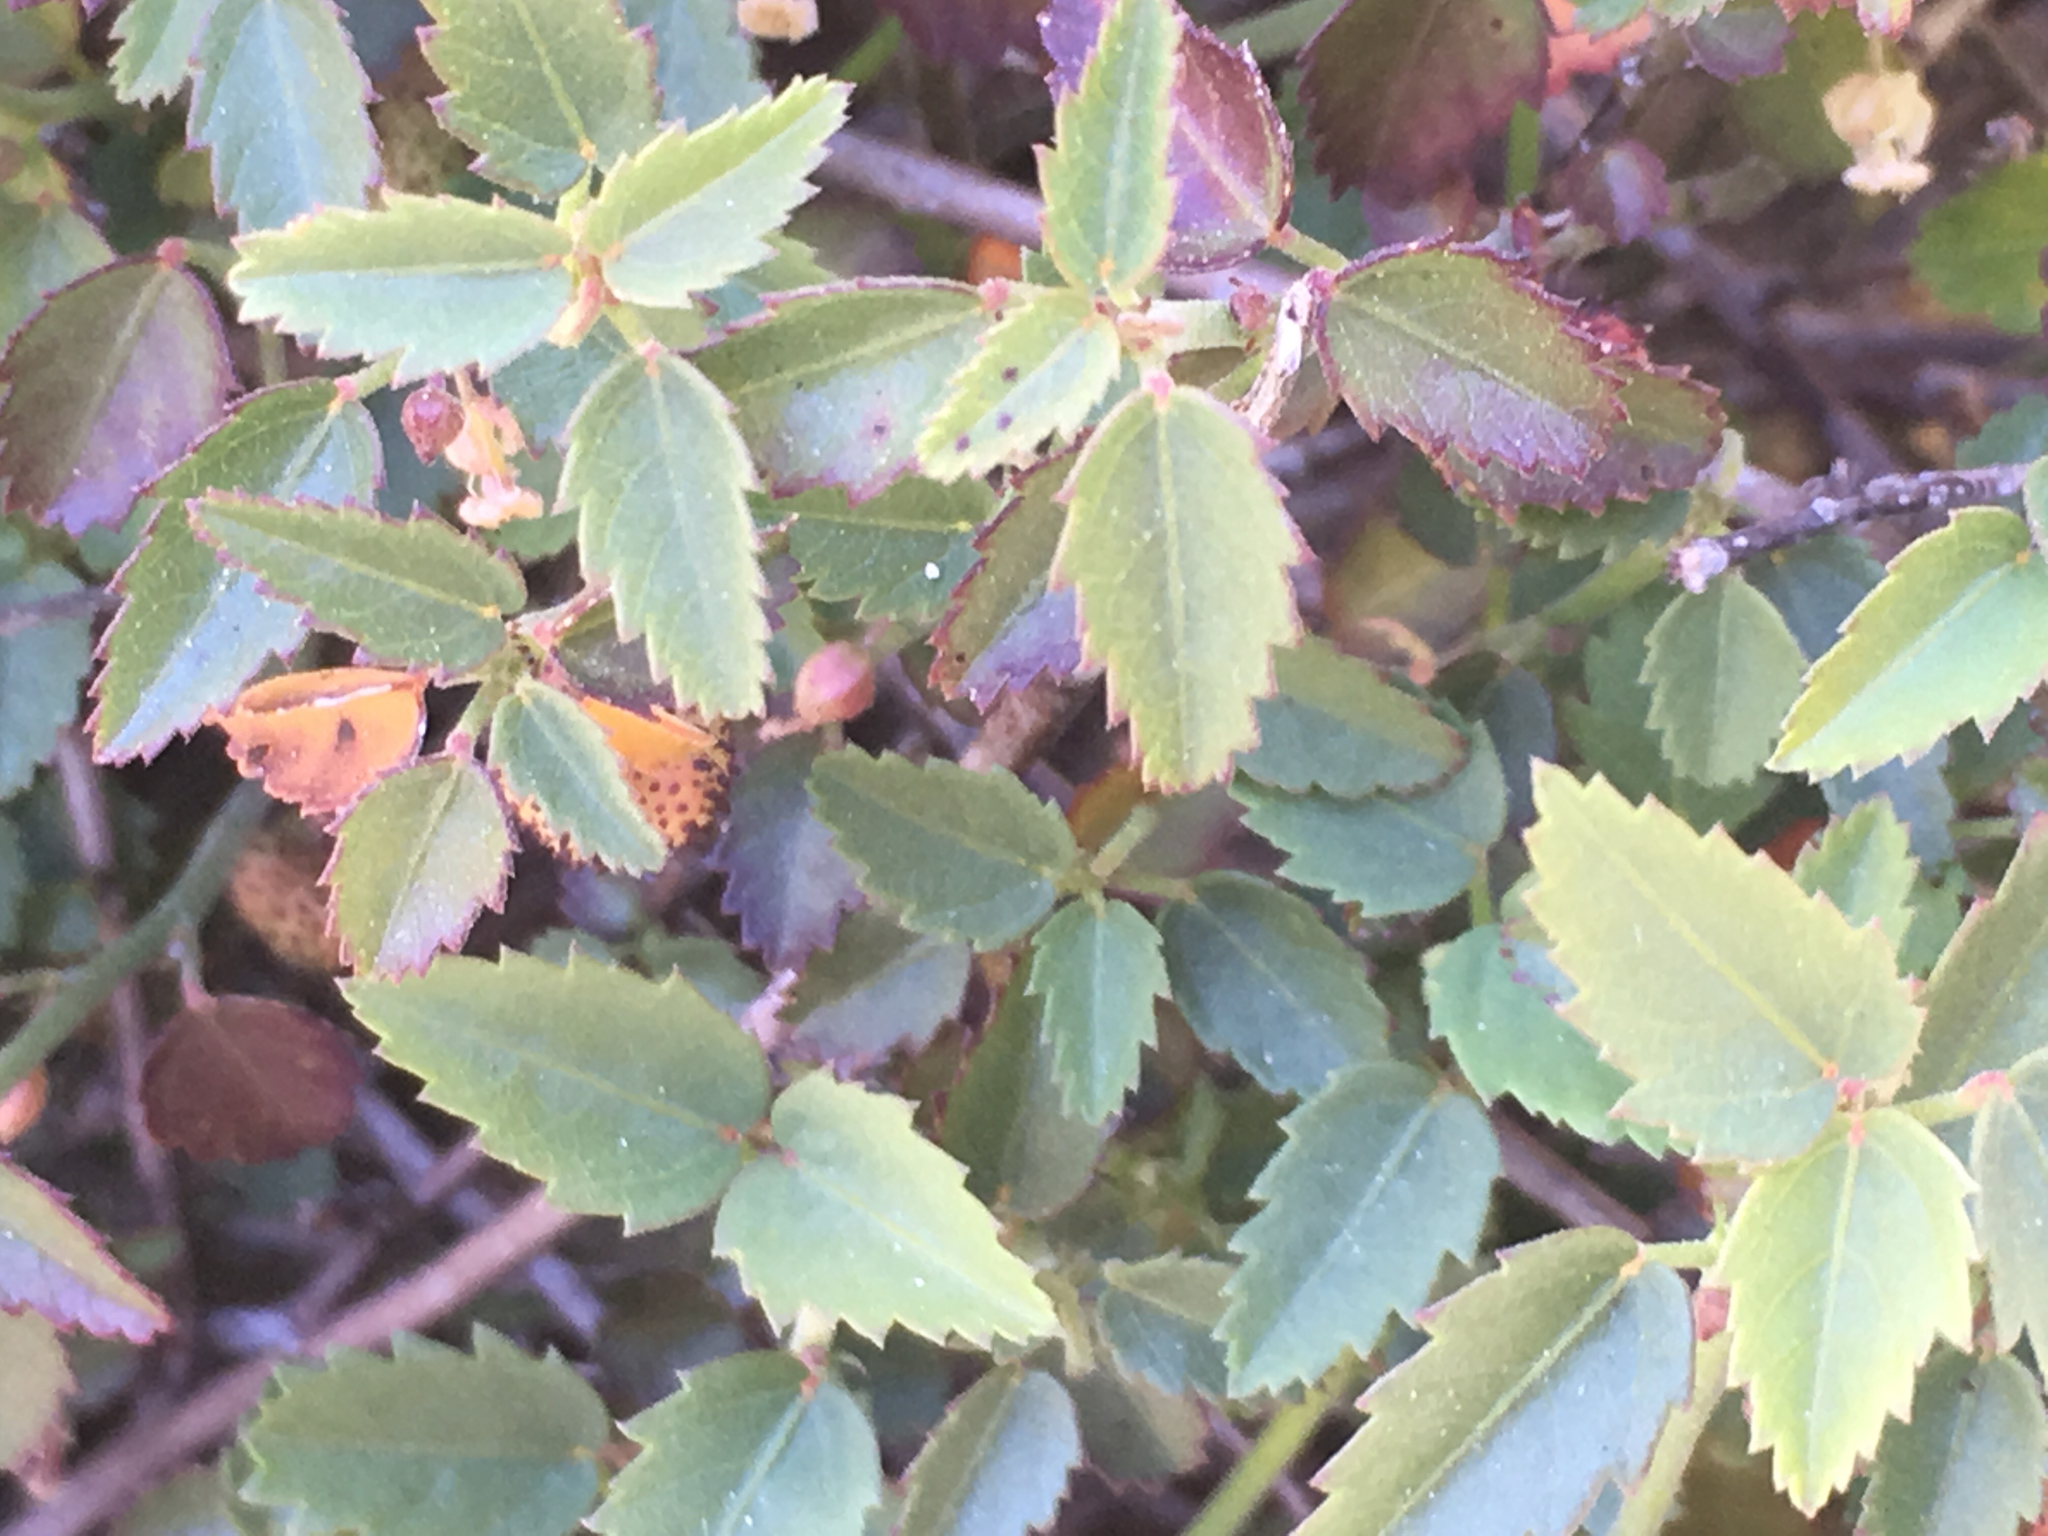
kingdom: Plantae
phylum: Tracheophyta
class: Magnoliopsida
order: Malvales
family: Malvaceae
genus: Ayenia
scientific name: Ayenia compacta
